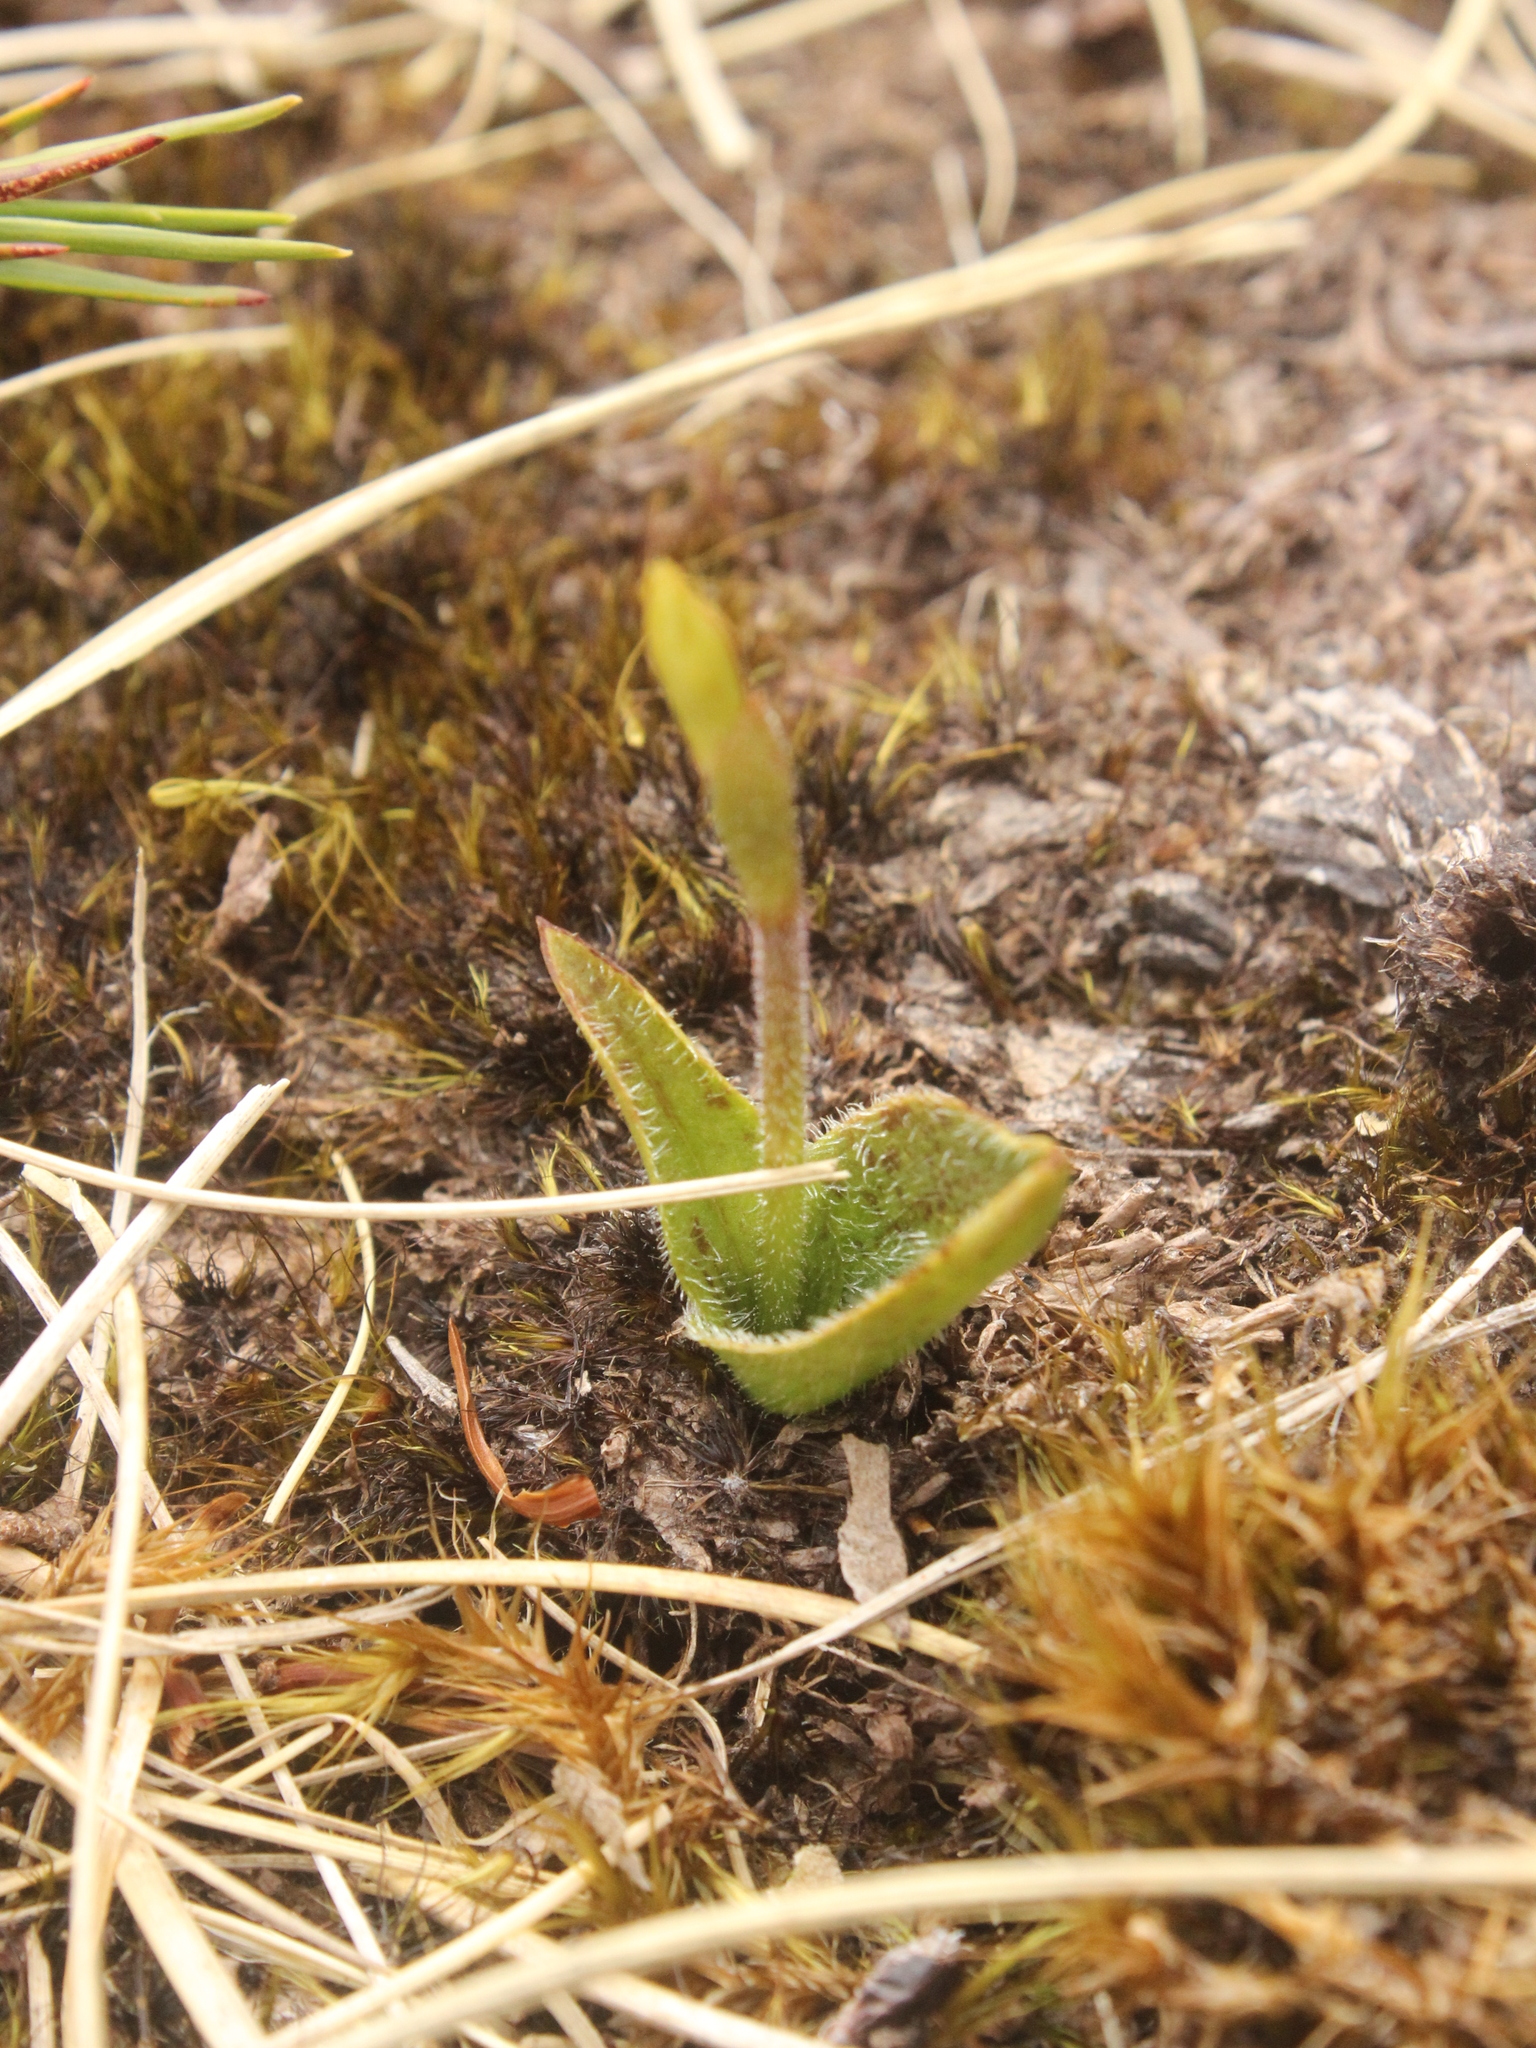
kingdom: Plantae
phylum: Tracheophyta
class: Liliopsida
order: Asparagales
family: Orchidaceae
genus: Aporostylis
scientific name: Aporostylis bifolia
